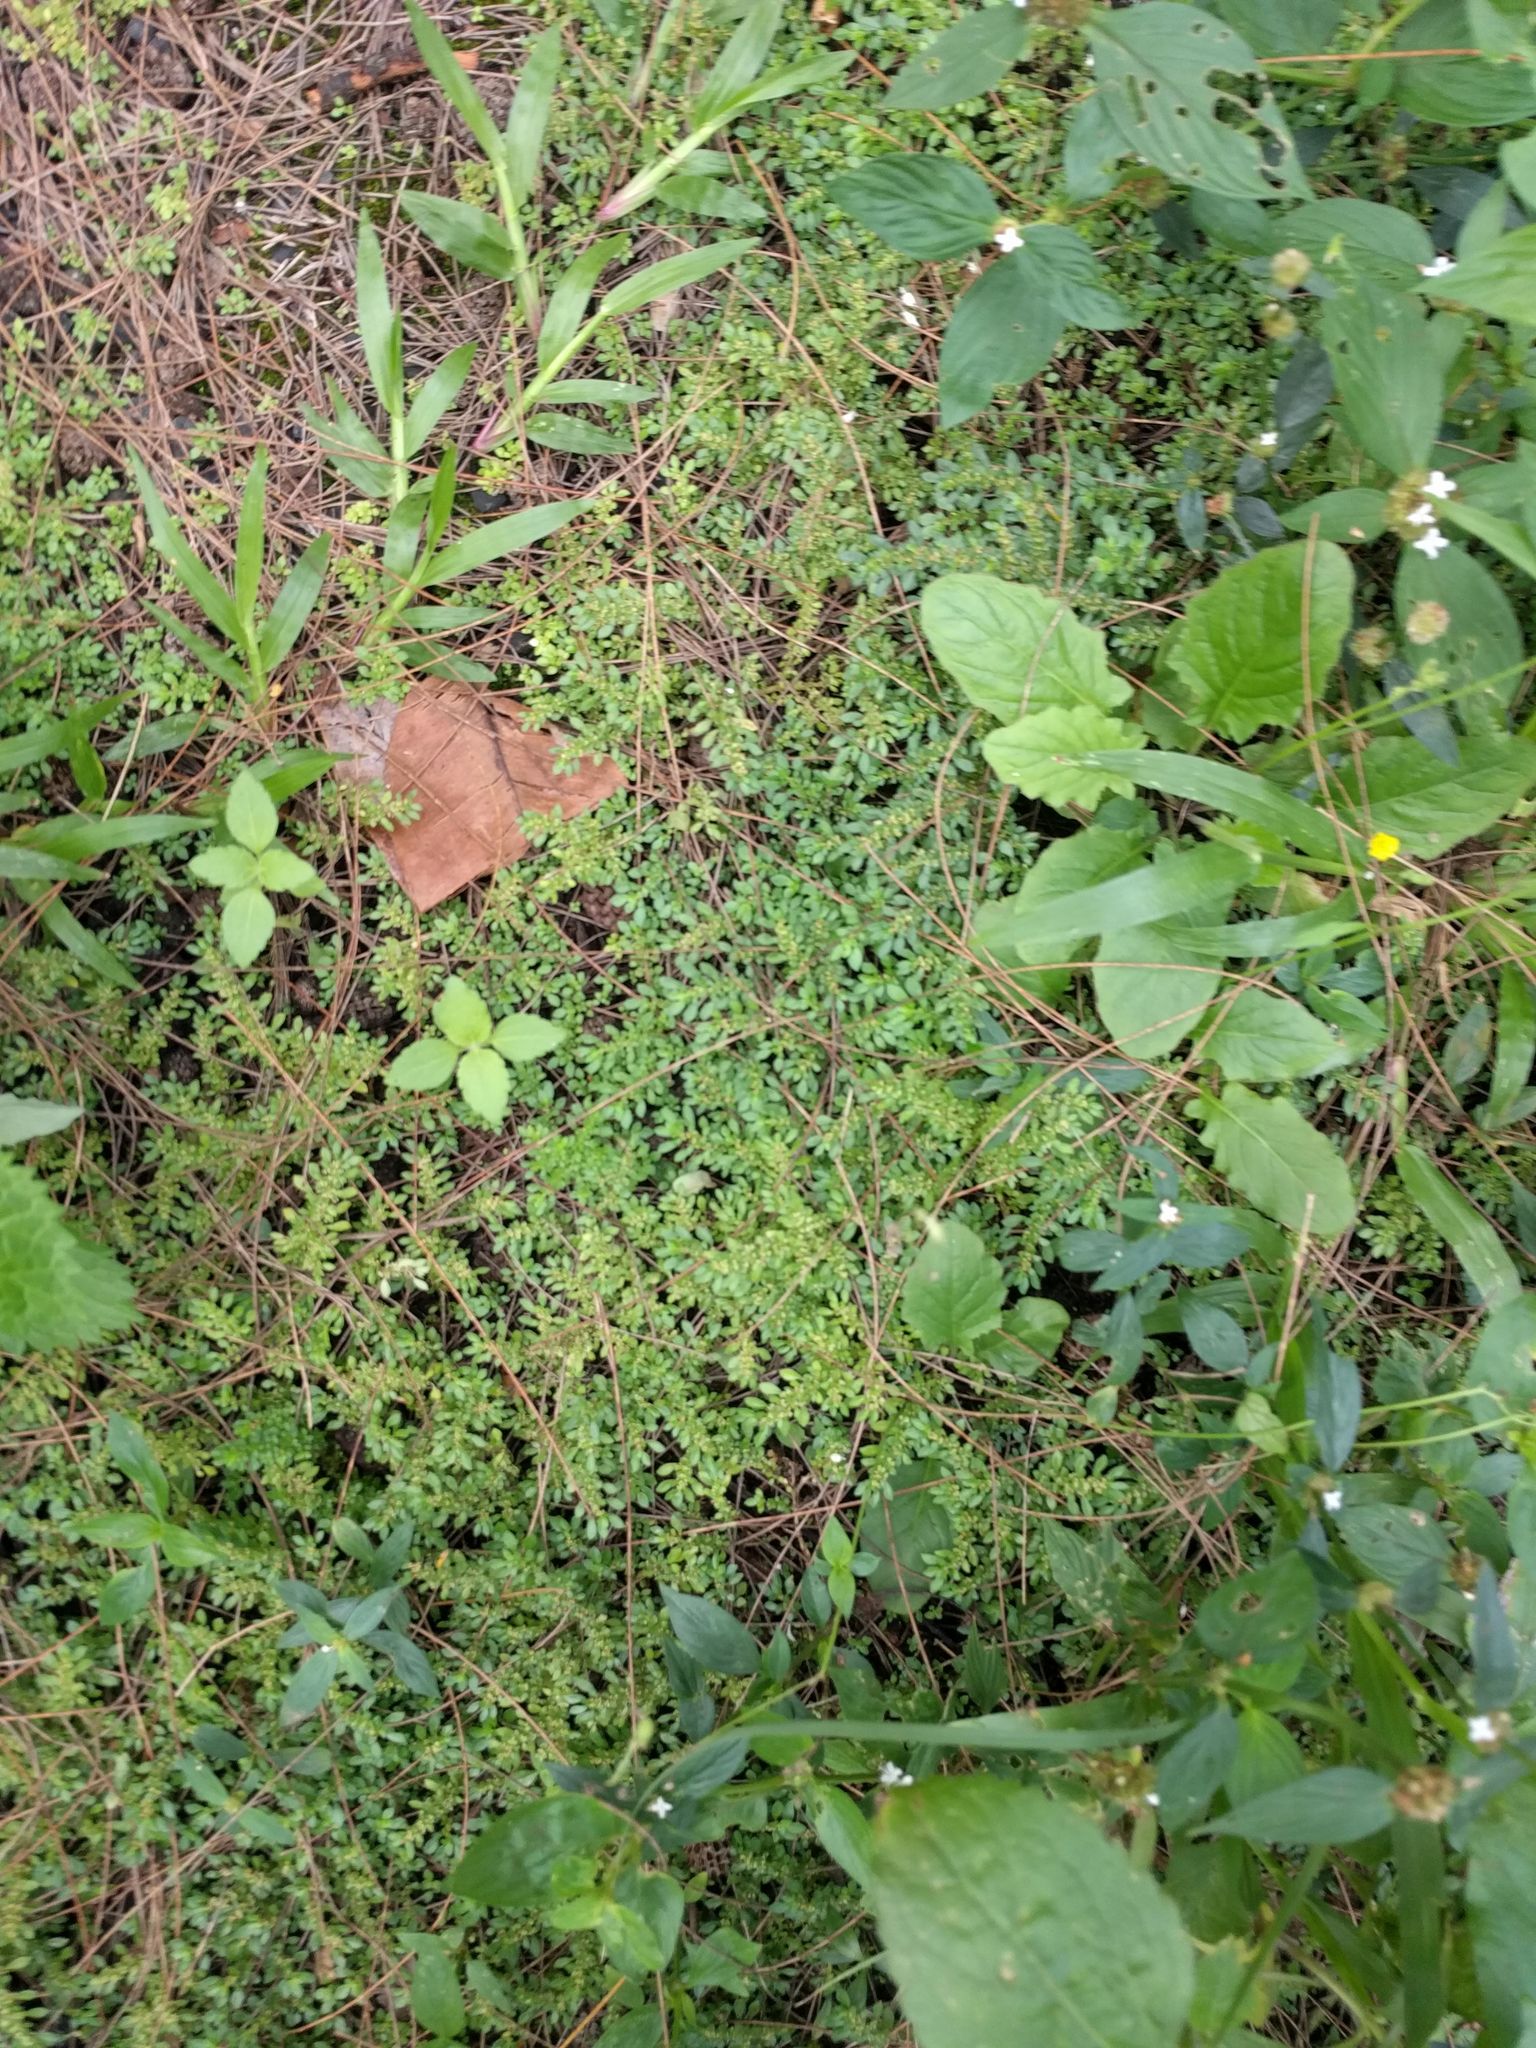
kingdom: Plantae
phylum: Tracheophyta
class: Magnoliopsida
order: Rosales
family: Urticaceae
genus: Pilea
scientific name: Pilea microphylla
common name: Artillery-plant
